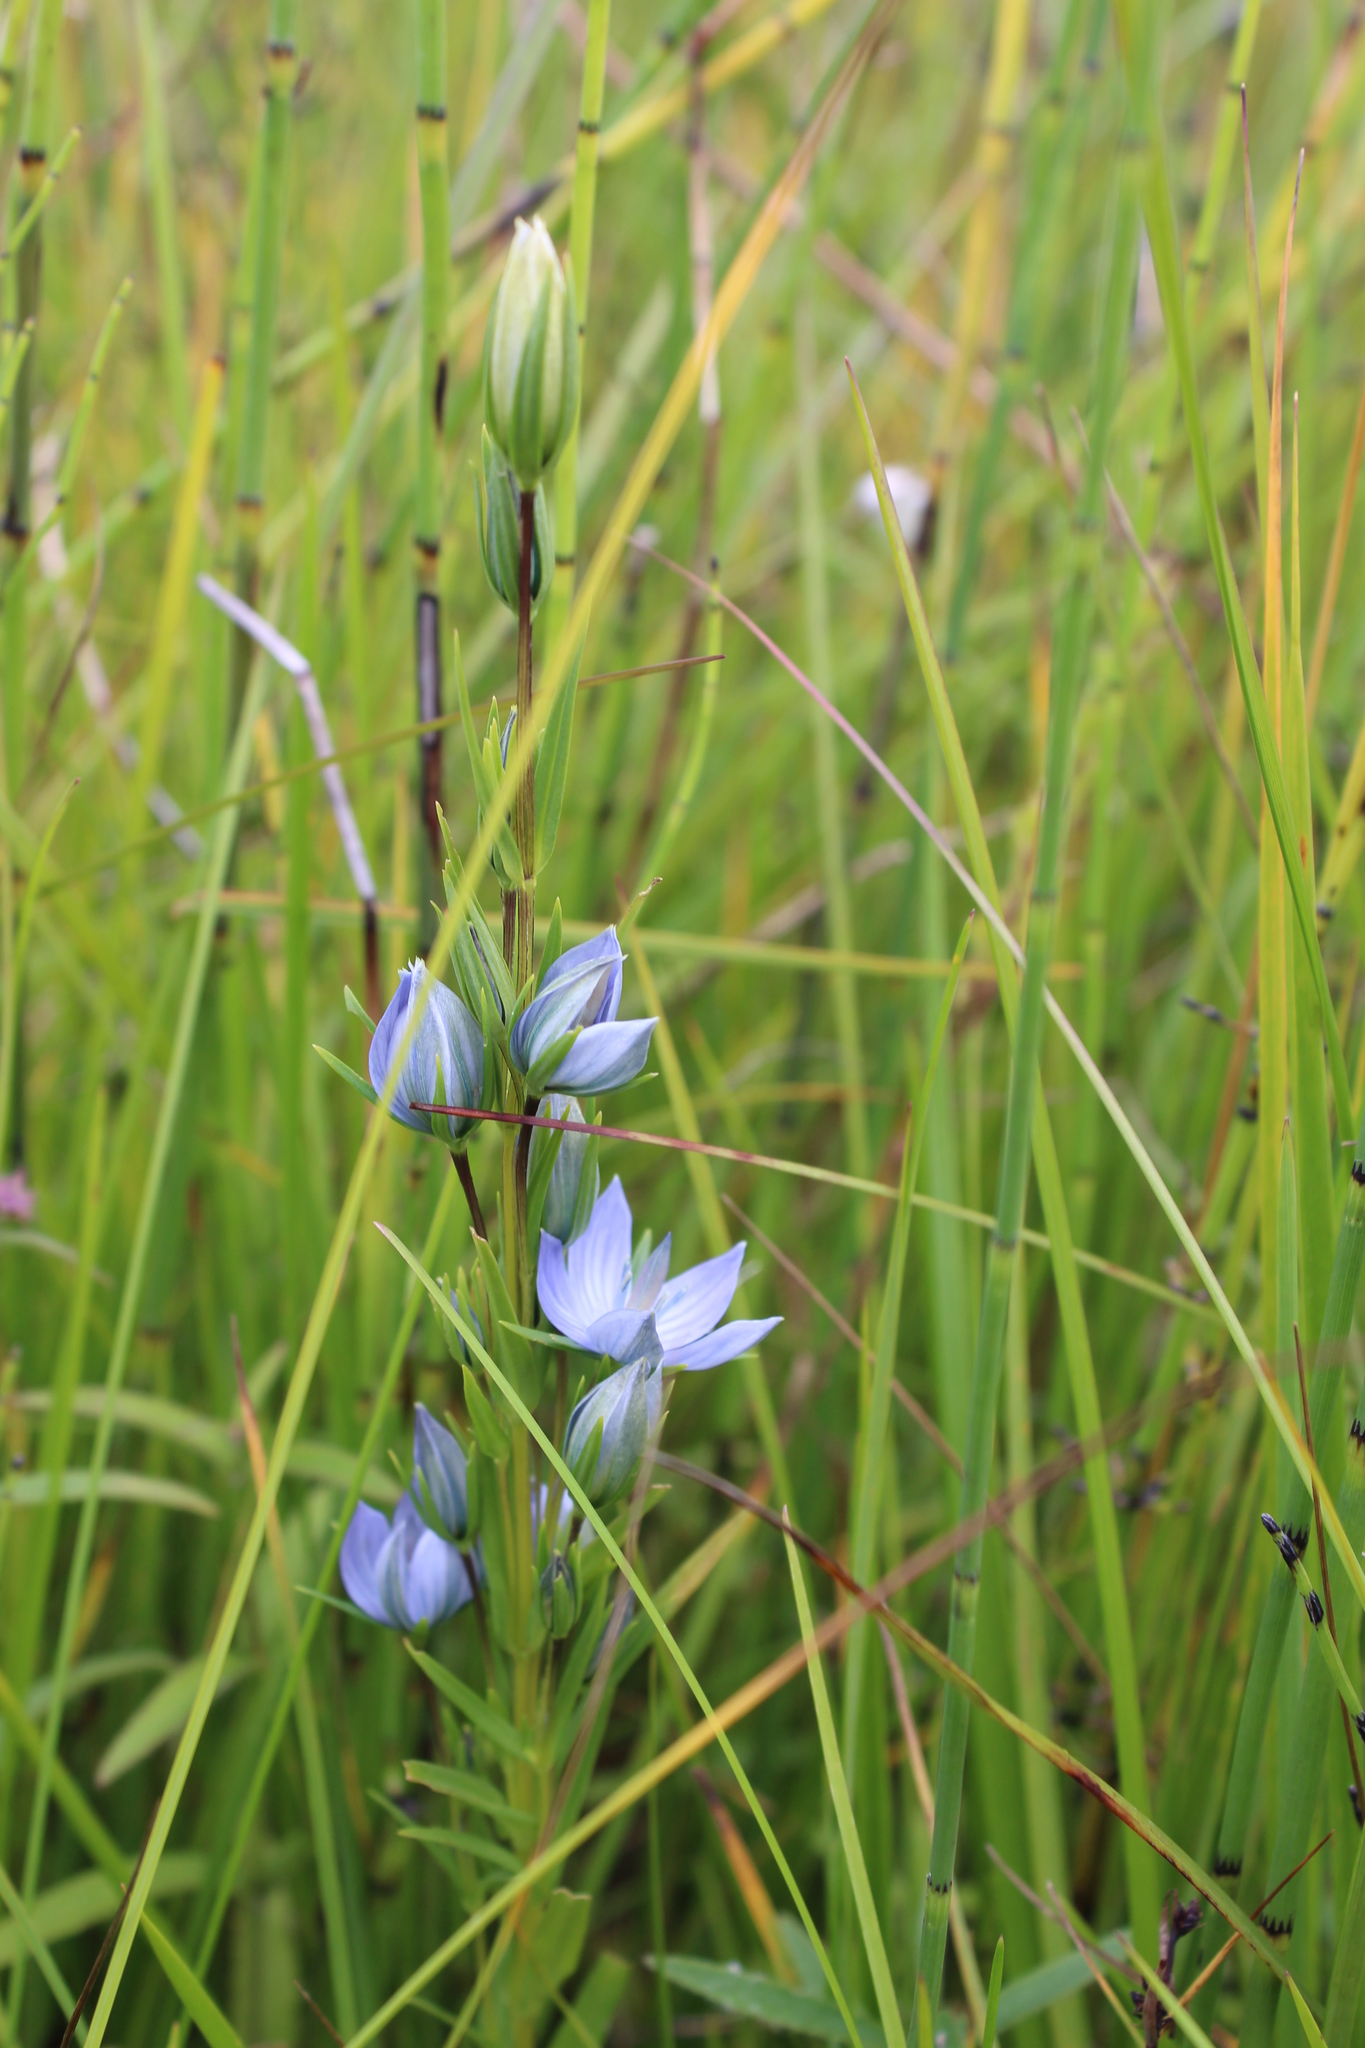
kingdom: Plantae
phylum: Tracheophyta
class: Magnoliopsida
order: Gentianales
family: Gentianaceae
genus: Lomatogonium
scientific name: Lomatogonium rotatum
